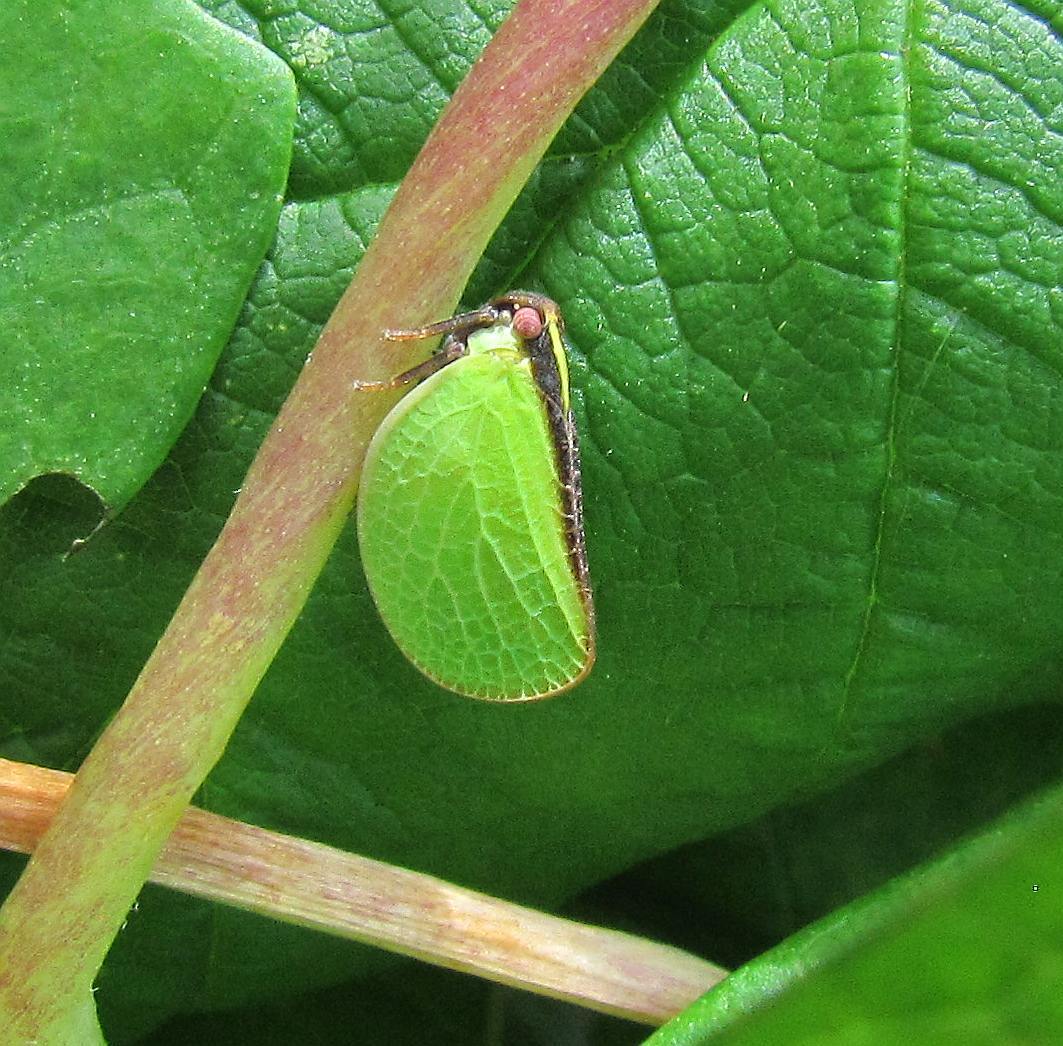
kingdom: Animalia
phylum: Arthropoda
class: Insecta
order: Hemiptera
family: Acanaloniidae
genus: Acanalonia
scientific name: Acanalonia bivittata
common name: Two-striped planthopper
